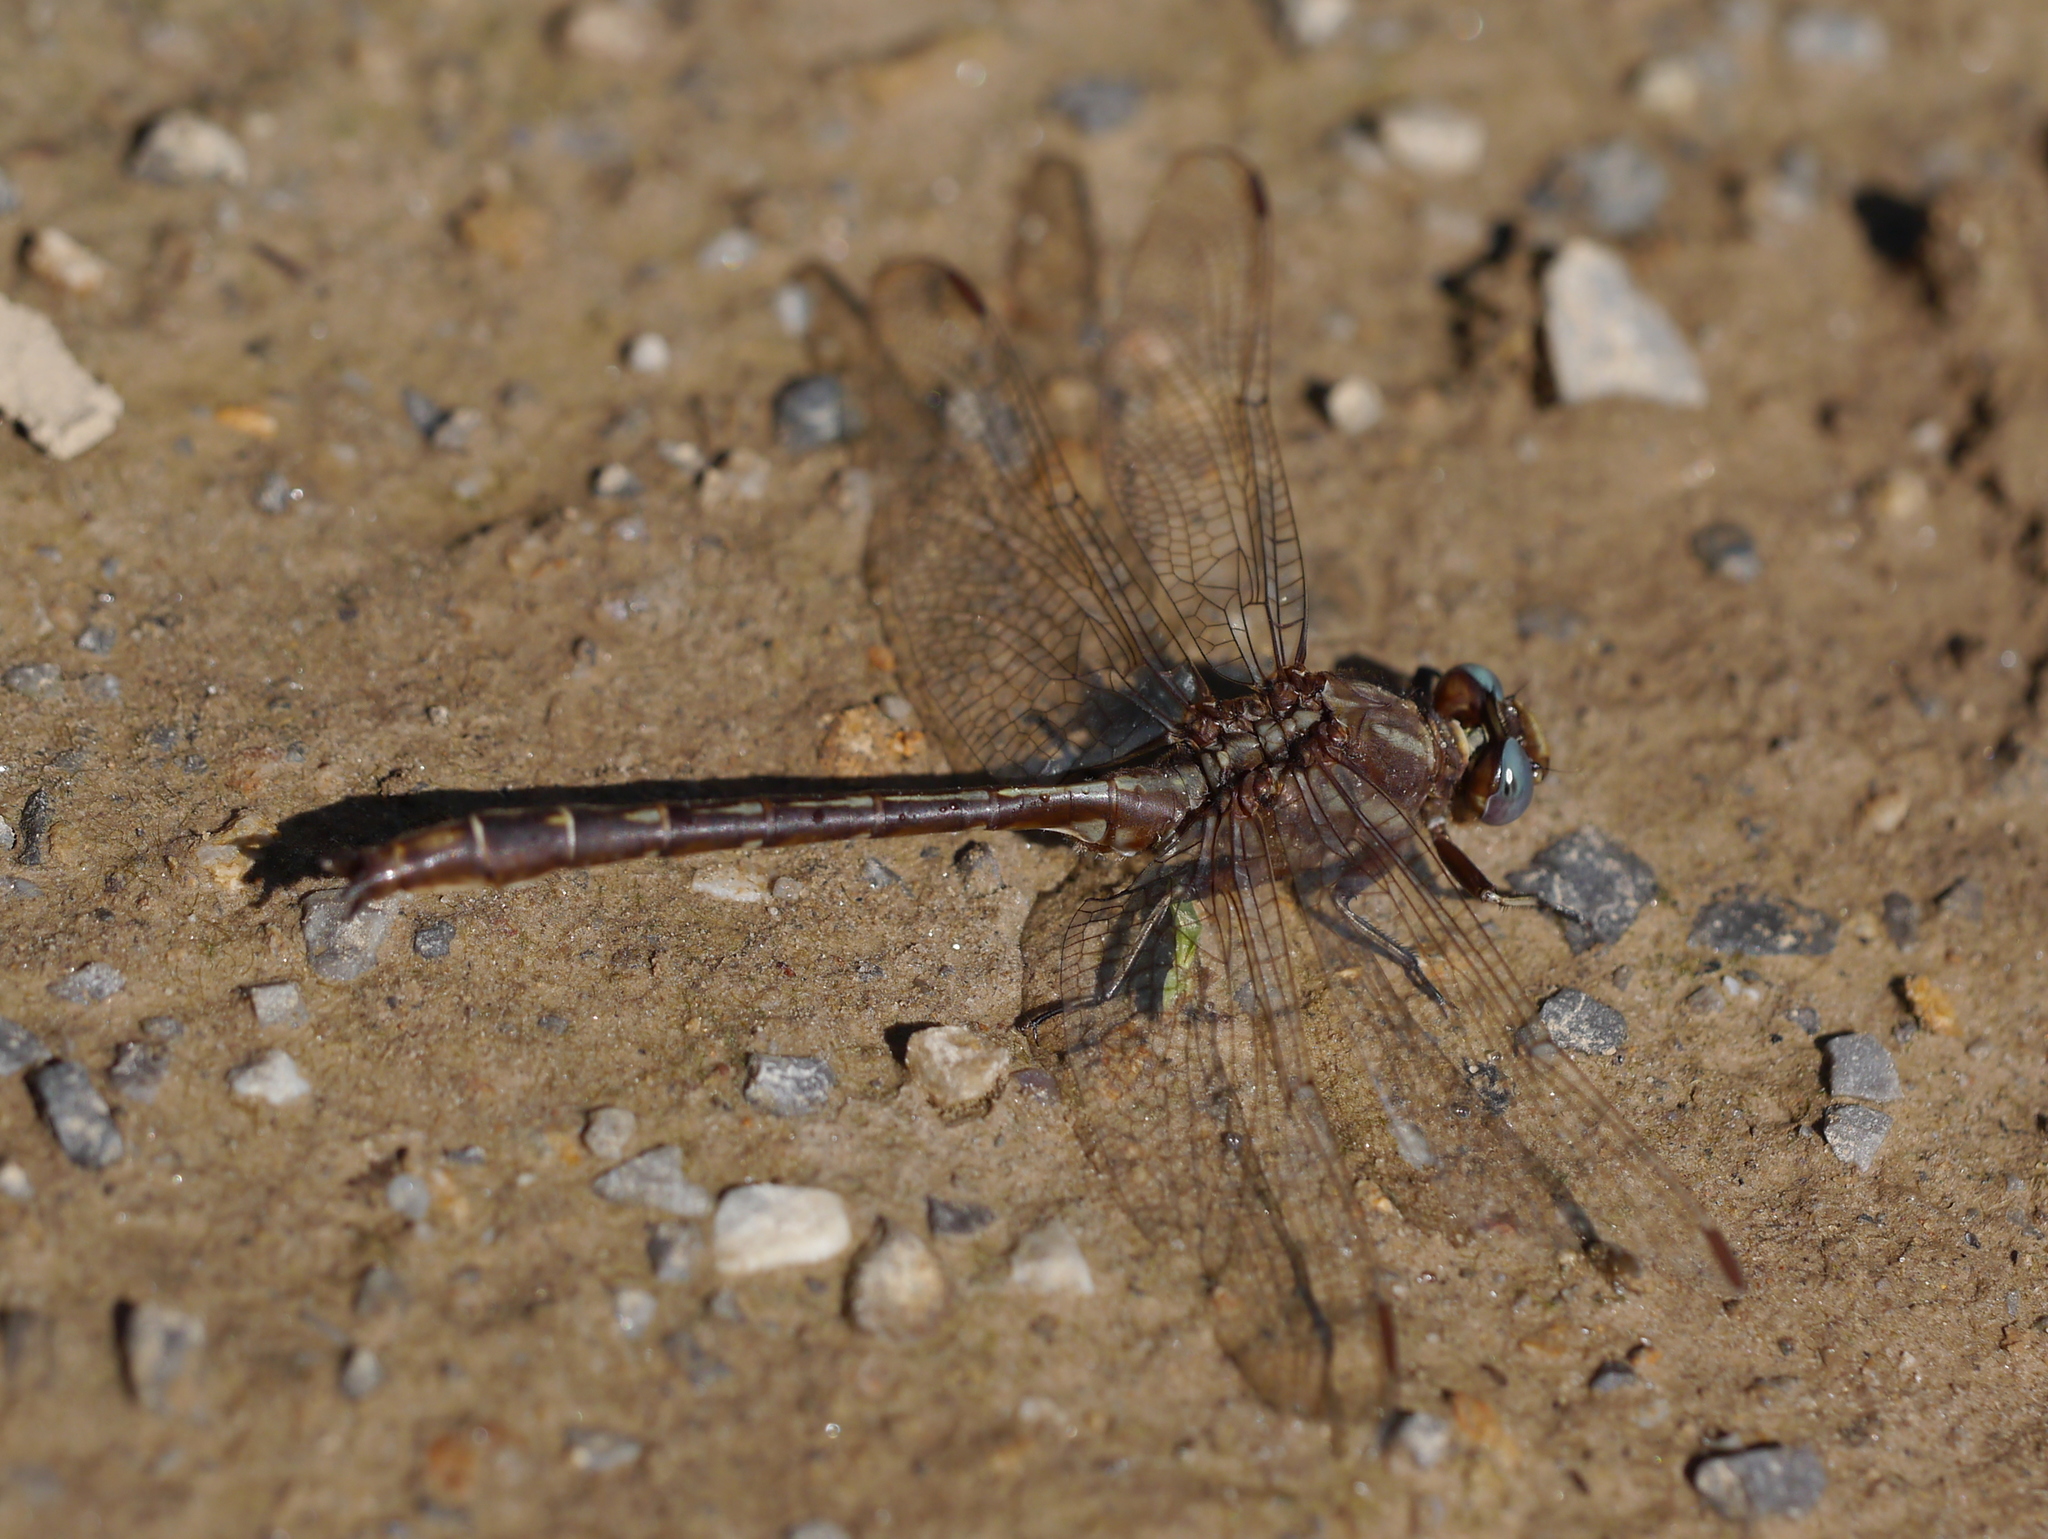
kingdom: Animalia
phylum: Arthropoda
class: Insecta
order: Odonata
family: Gomphidae
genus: Phanogomphus
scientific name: Phanogomphus lividus
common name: Ashy clubtail
